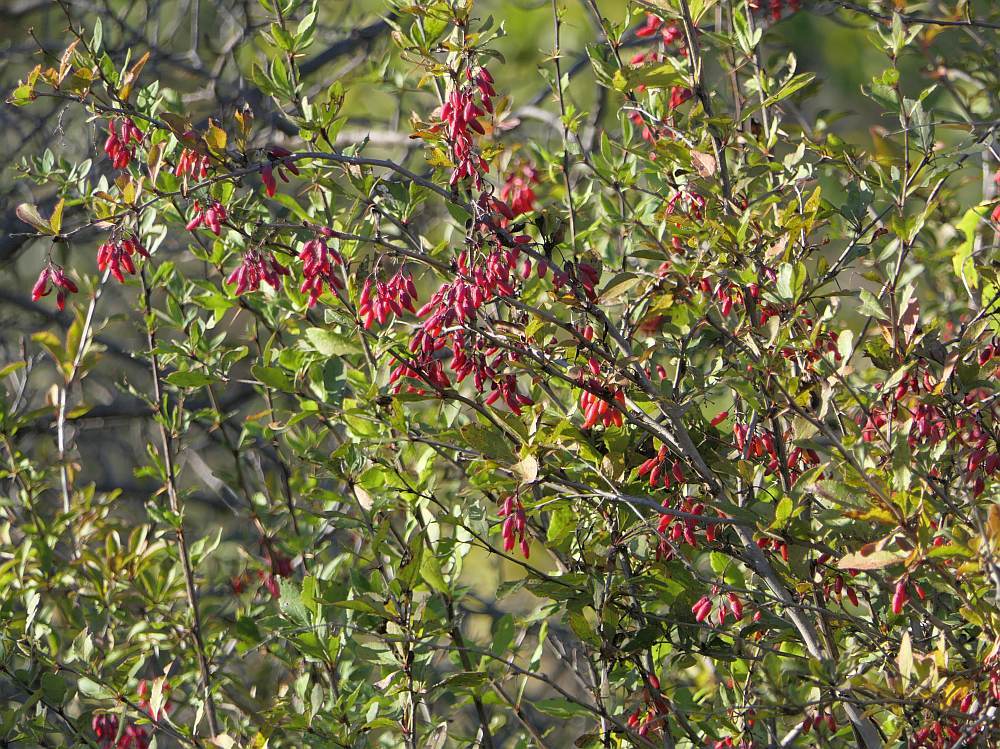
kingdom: Plantae
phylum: Tracheophyta
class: Magnoliopsida
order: Ranunculales
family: Berberidaceae
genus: Berberis
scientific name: Berberis vulgaris
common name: Barberry
